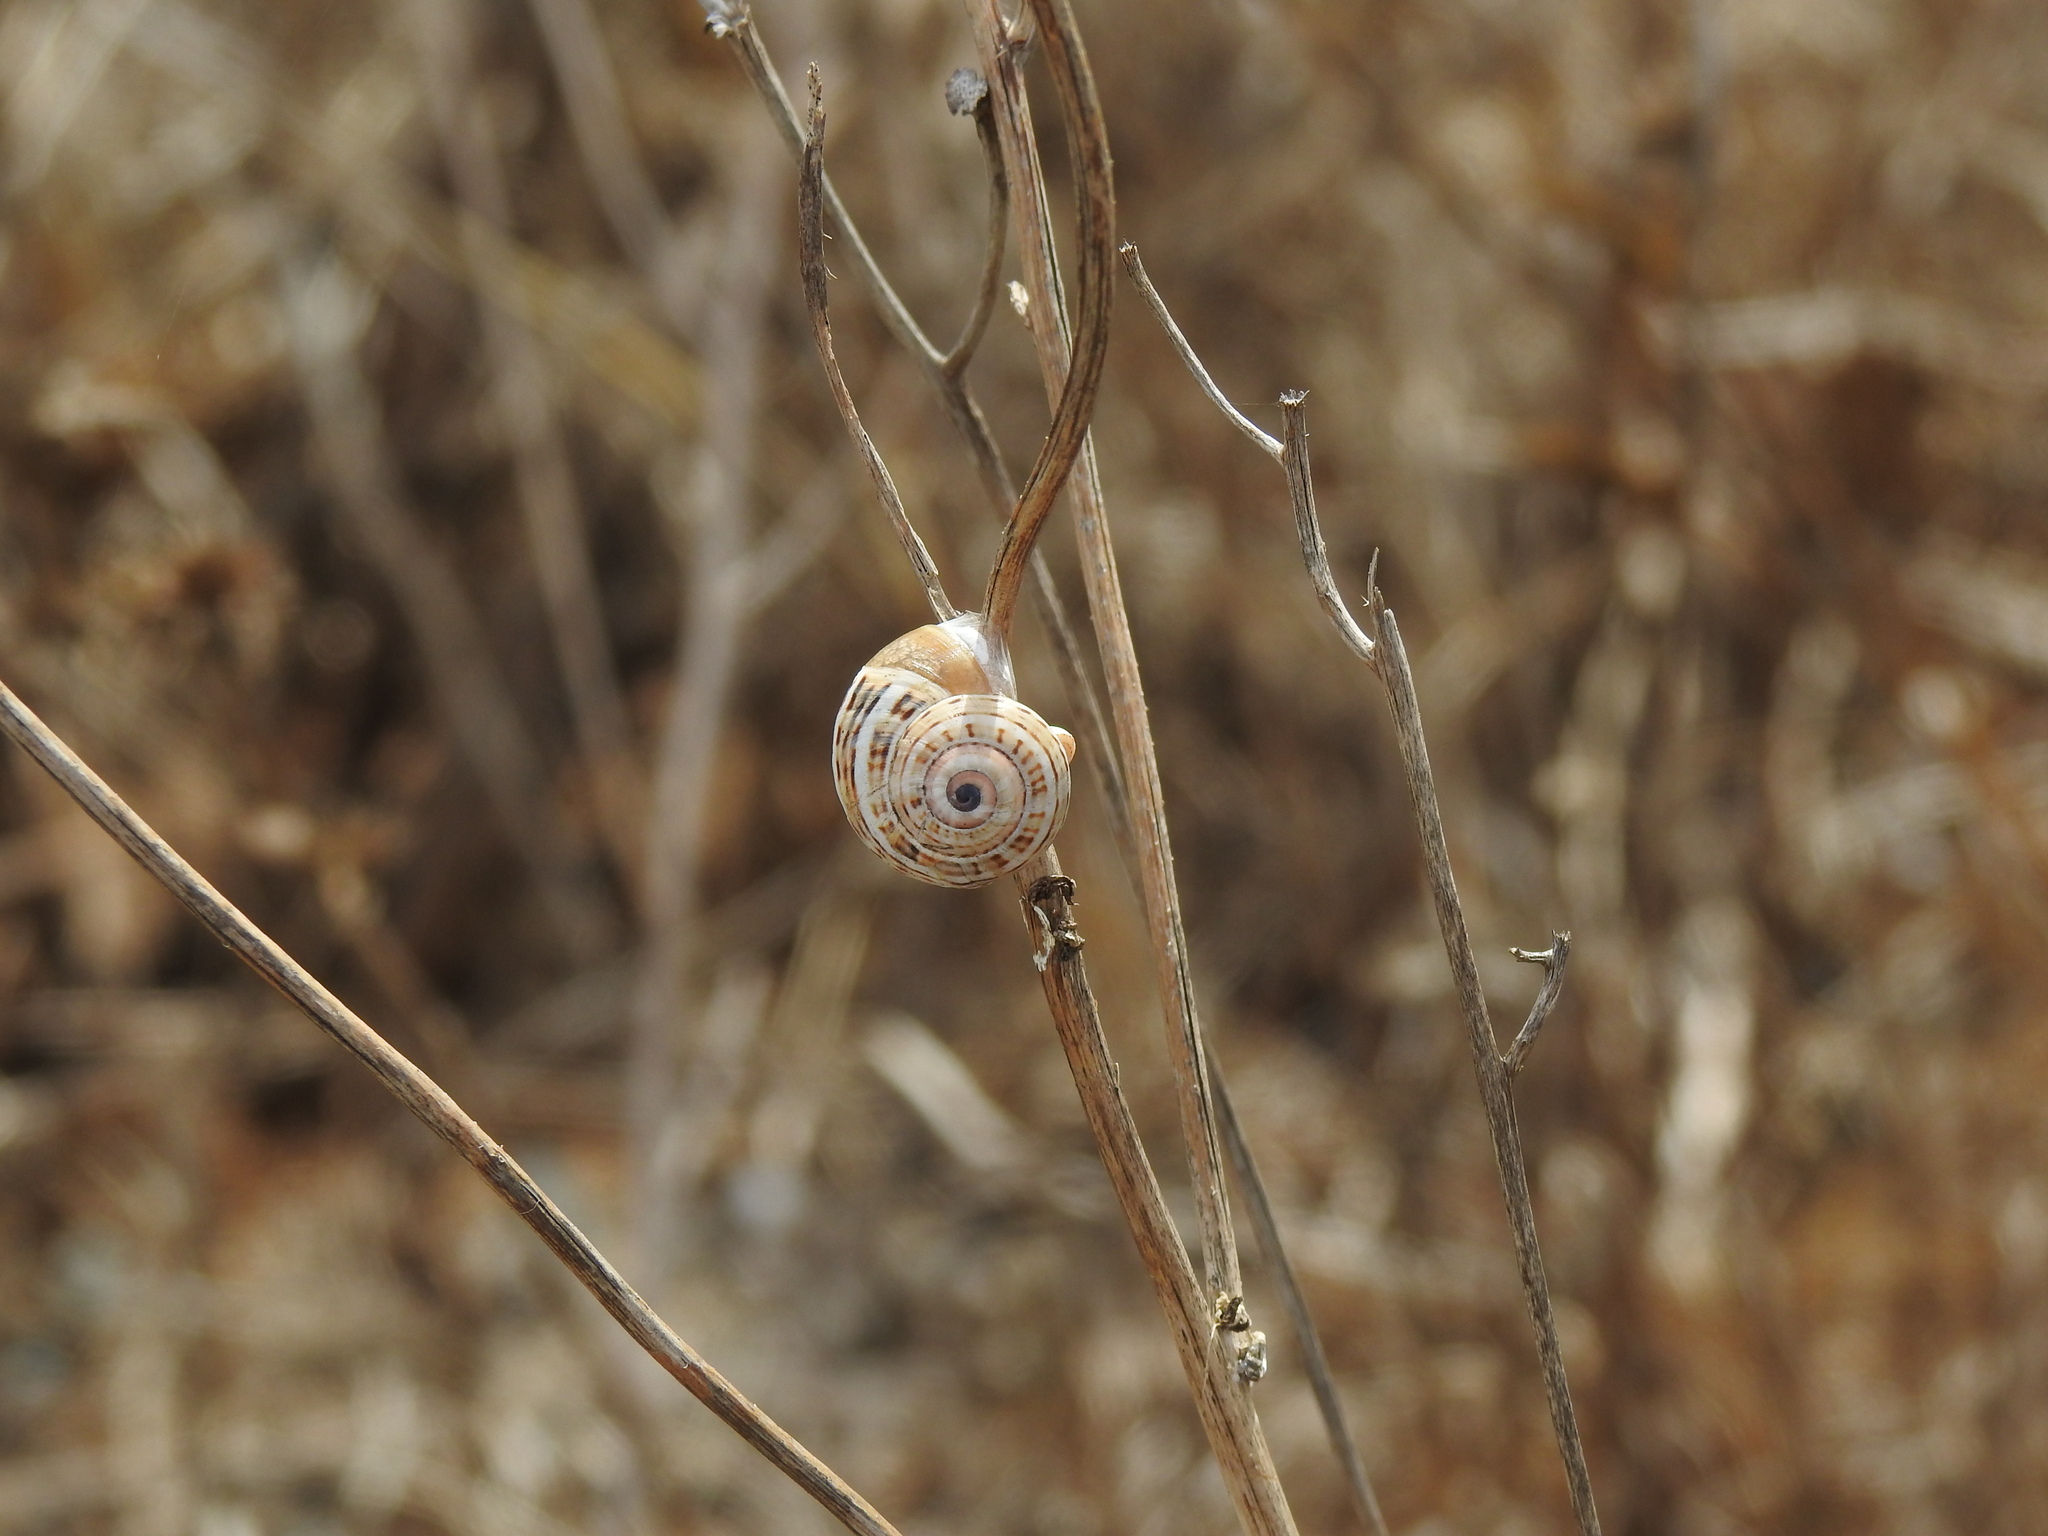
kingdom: Animalia
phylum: Mollusca
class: Gastropoda
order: Stylommatophora
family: Helicidae
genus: Theba
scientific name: Theba pisana
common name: White snail
